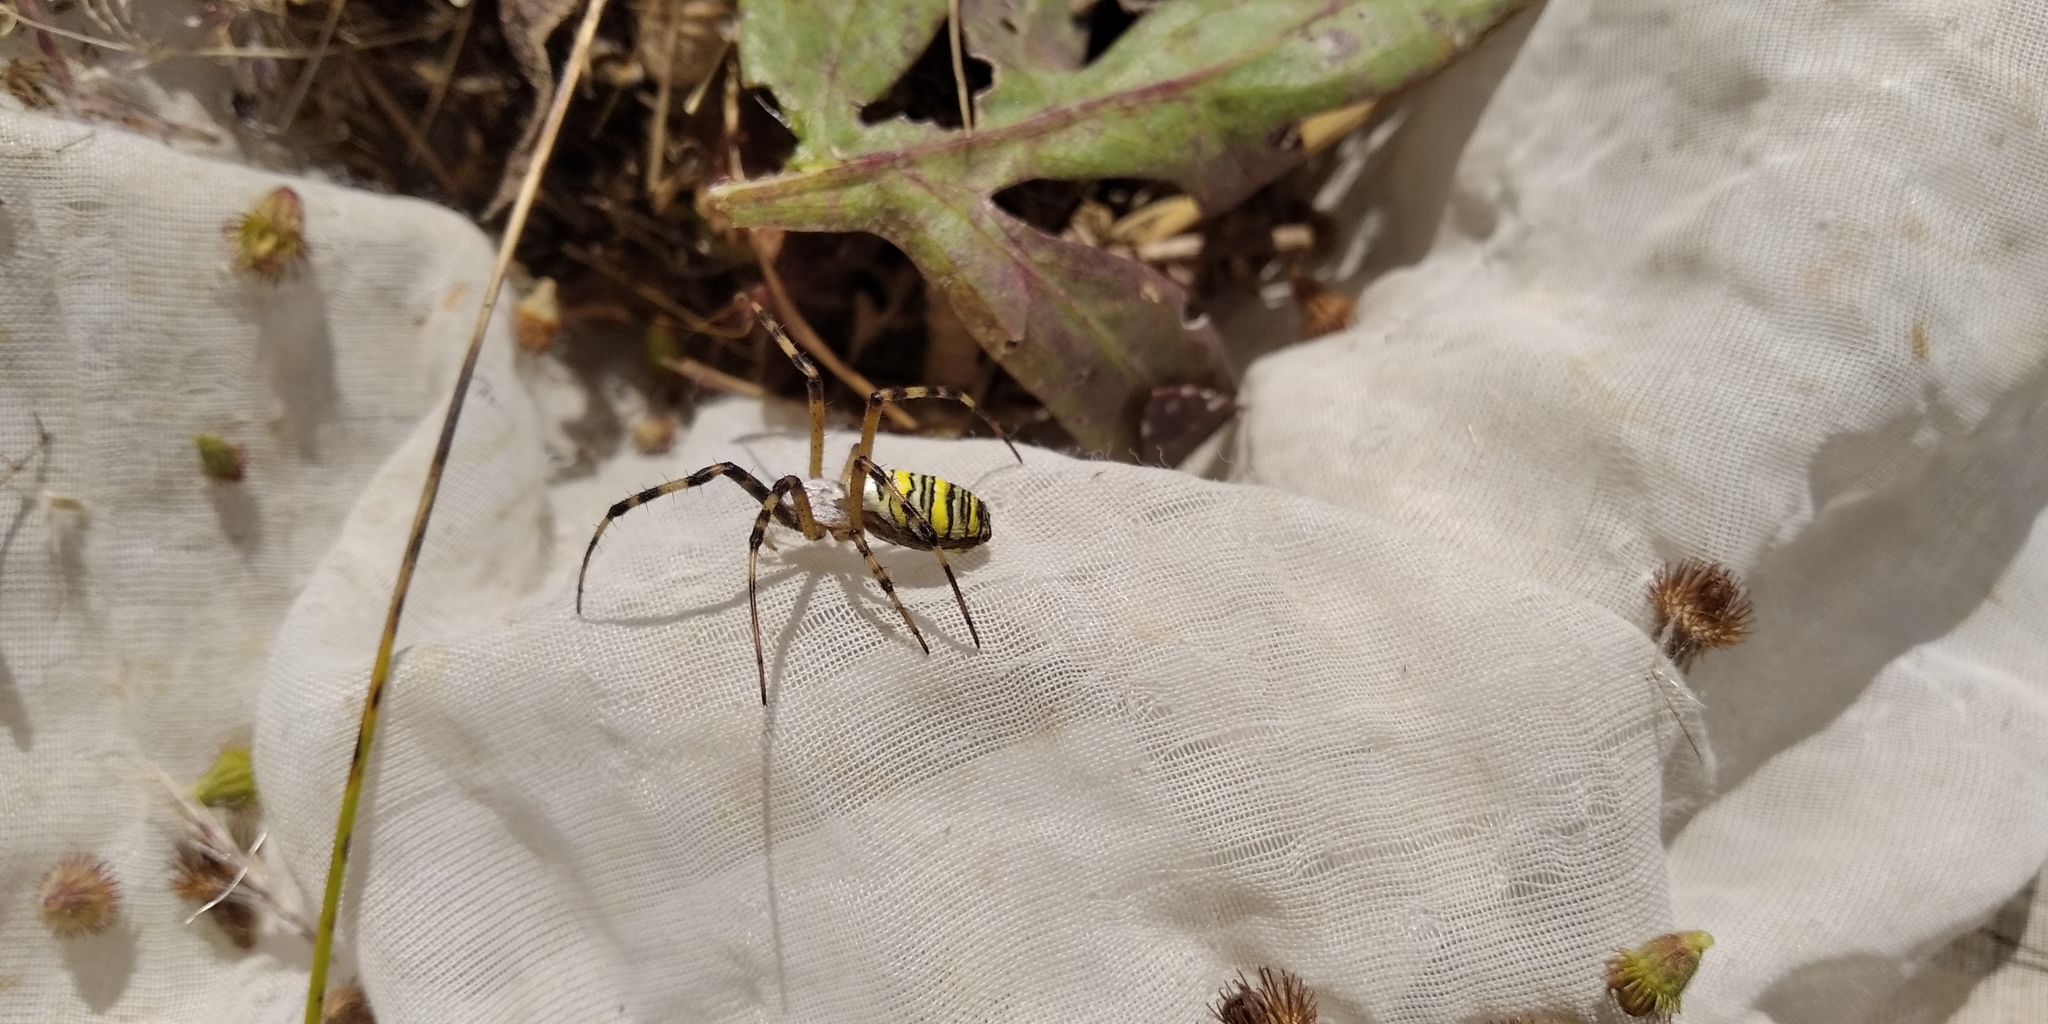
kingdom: Animalia
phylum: Arthropoda
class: Arachnida
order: Araneae
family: Araneidae
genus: Argiope
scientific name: Argiope bruennichi
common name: Wasp spider
